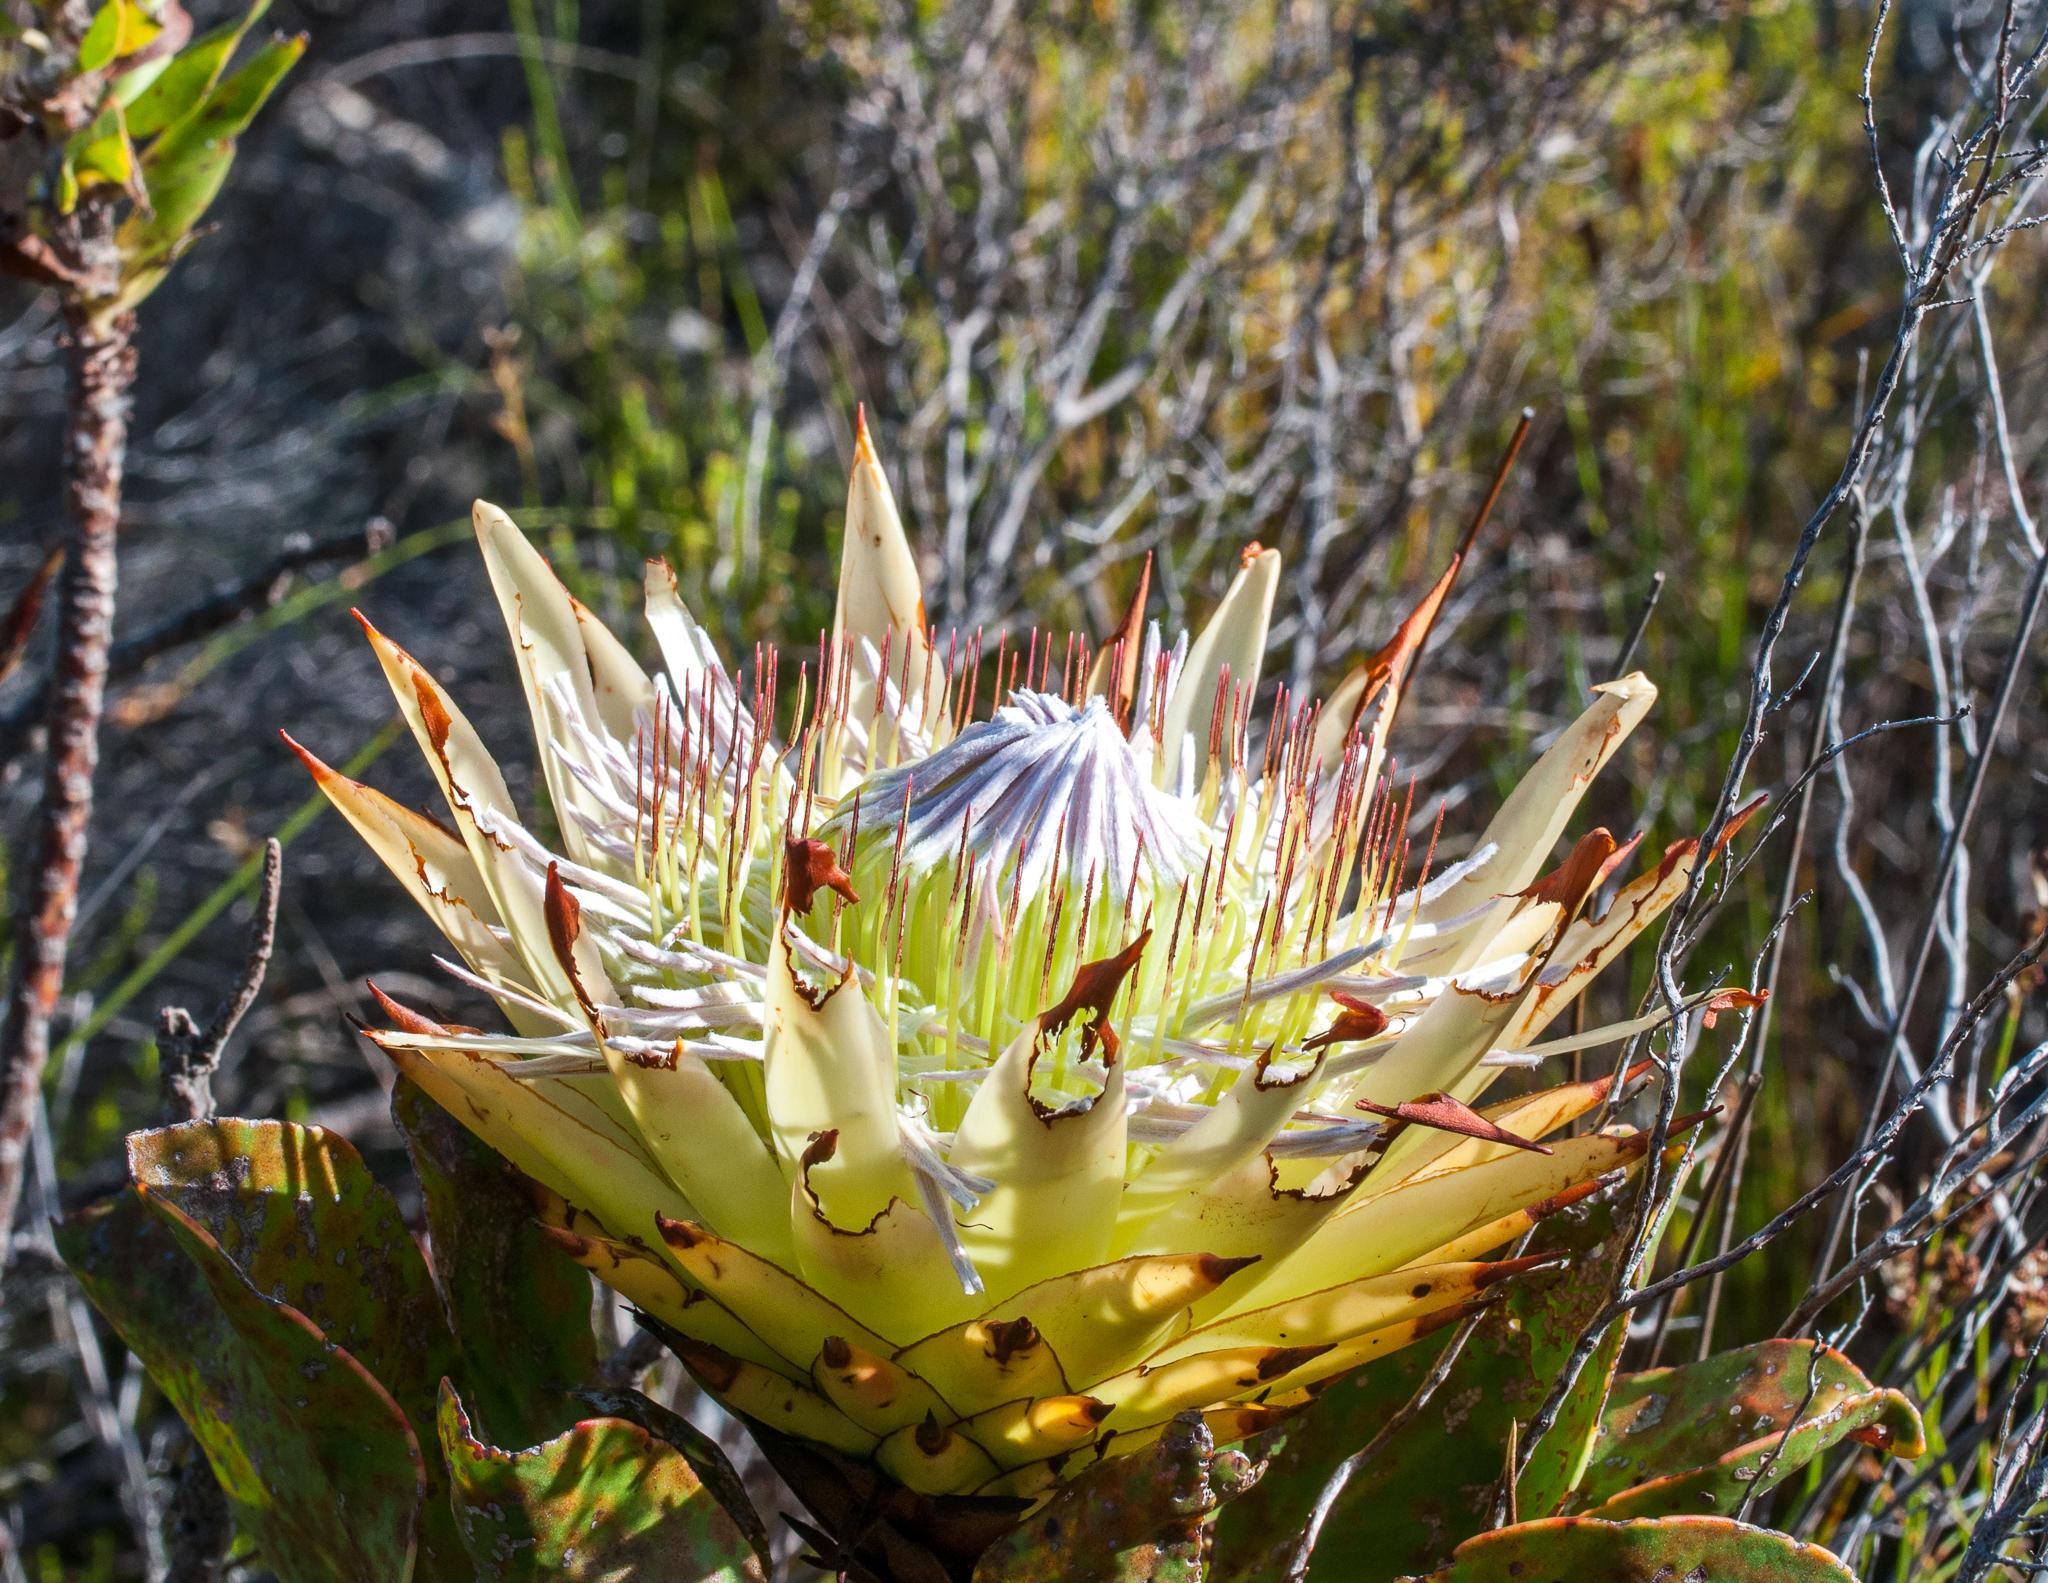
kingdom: Plantae
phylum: Tracheophyta
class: Magnoliopsida
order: Proteales
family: Proteaceae
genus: Protea
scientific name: Protea cynaroides
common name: King protea
